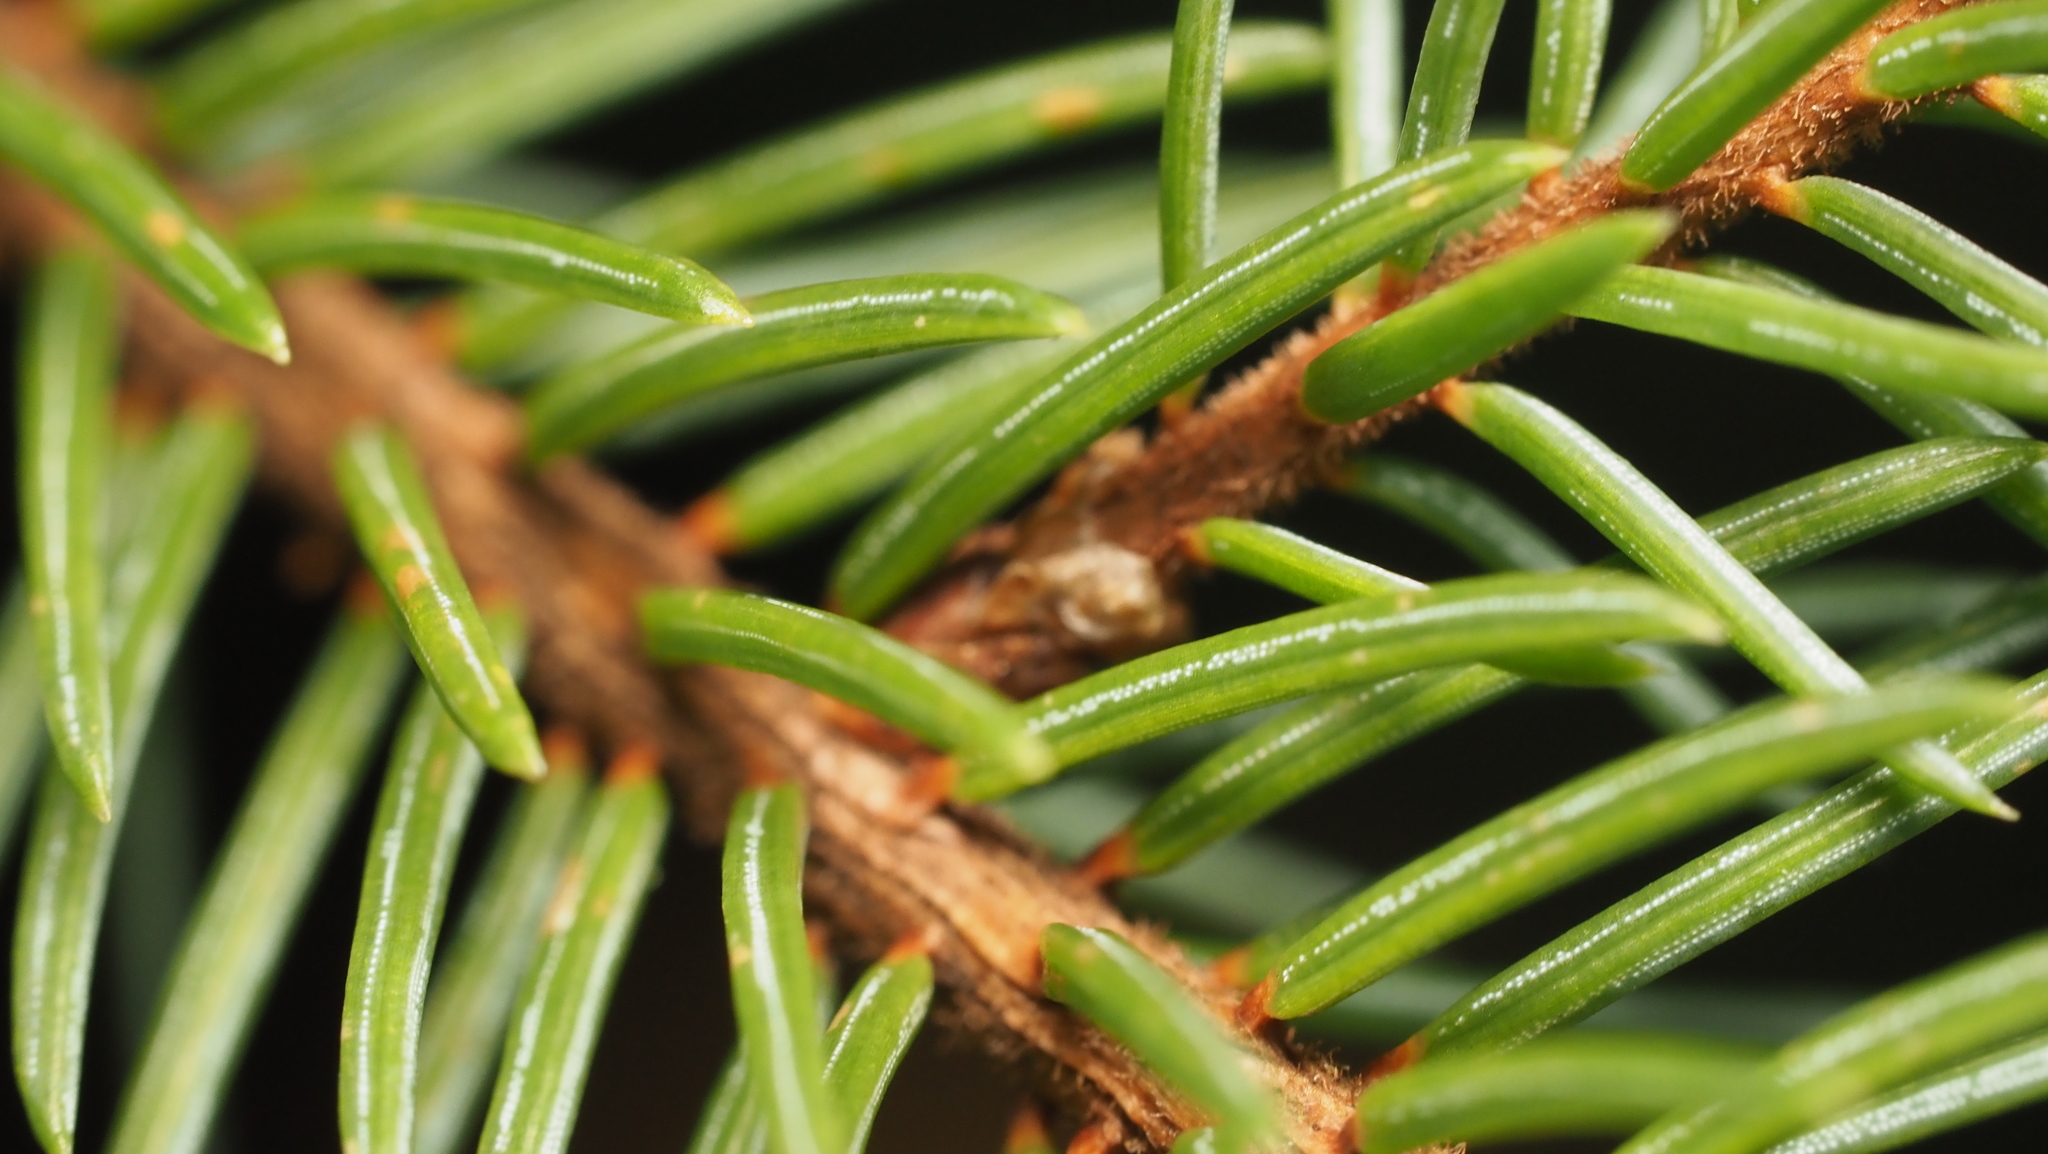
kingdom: Plantae
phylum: Tracheophyta
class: Pinopsida
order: Pinales
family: Pinaceae
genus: Picea
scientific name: Picea mariana
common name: Black spruce
